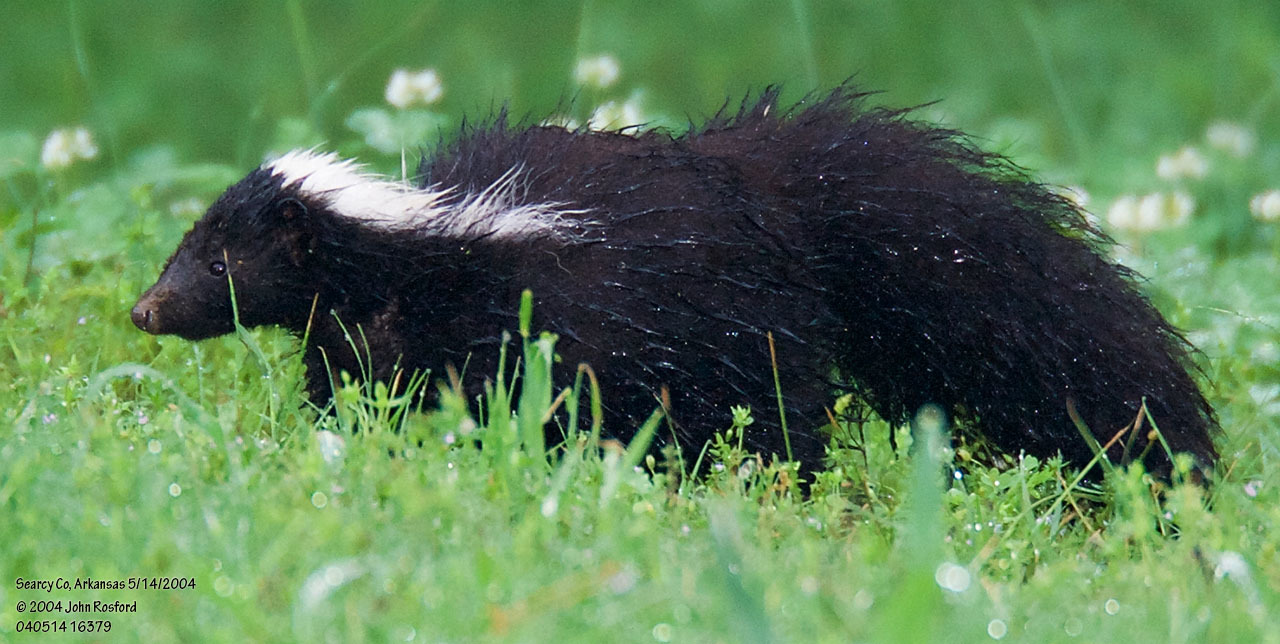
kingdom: Animalia
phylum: Chordata
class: Mammalia
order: Carnivora
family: Mephitidae
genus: Mephitis
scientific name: Mephitis mephitis
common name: Striped skunk
